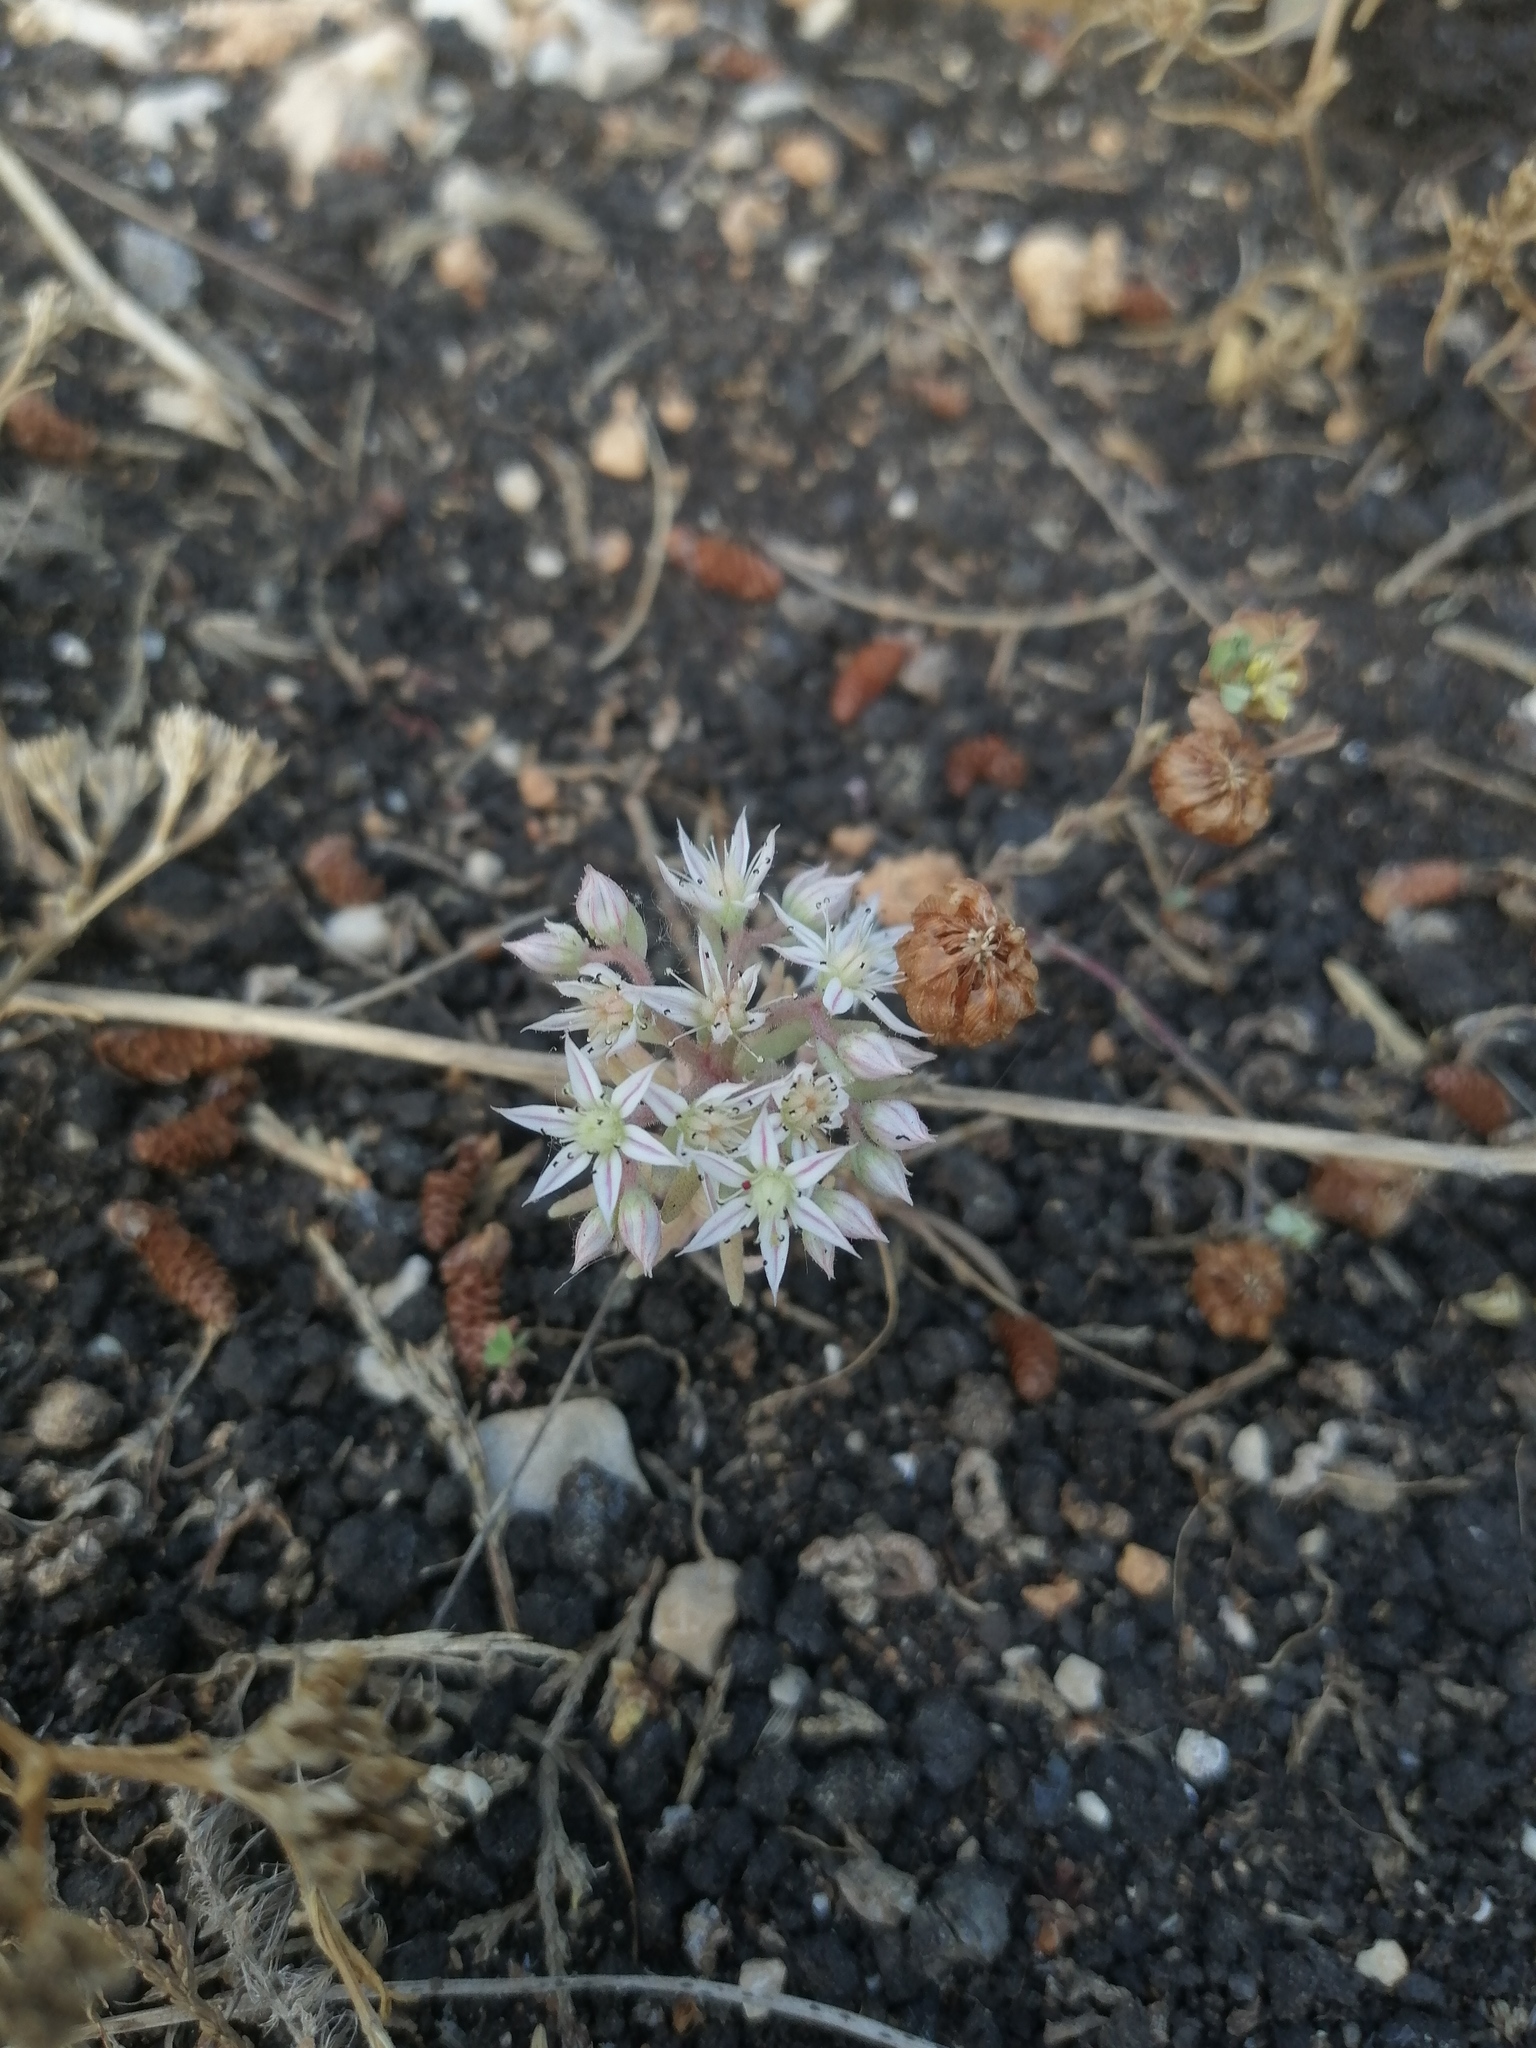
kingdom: Plantae
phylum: Tracheophyta
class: Magnoliopsida
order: Saxifragales
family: Crassulaceae
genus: Sedum
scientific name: Sedum hispanicum
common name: Spanish stonecrop
